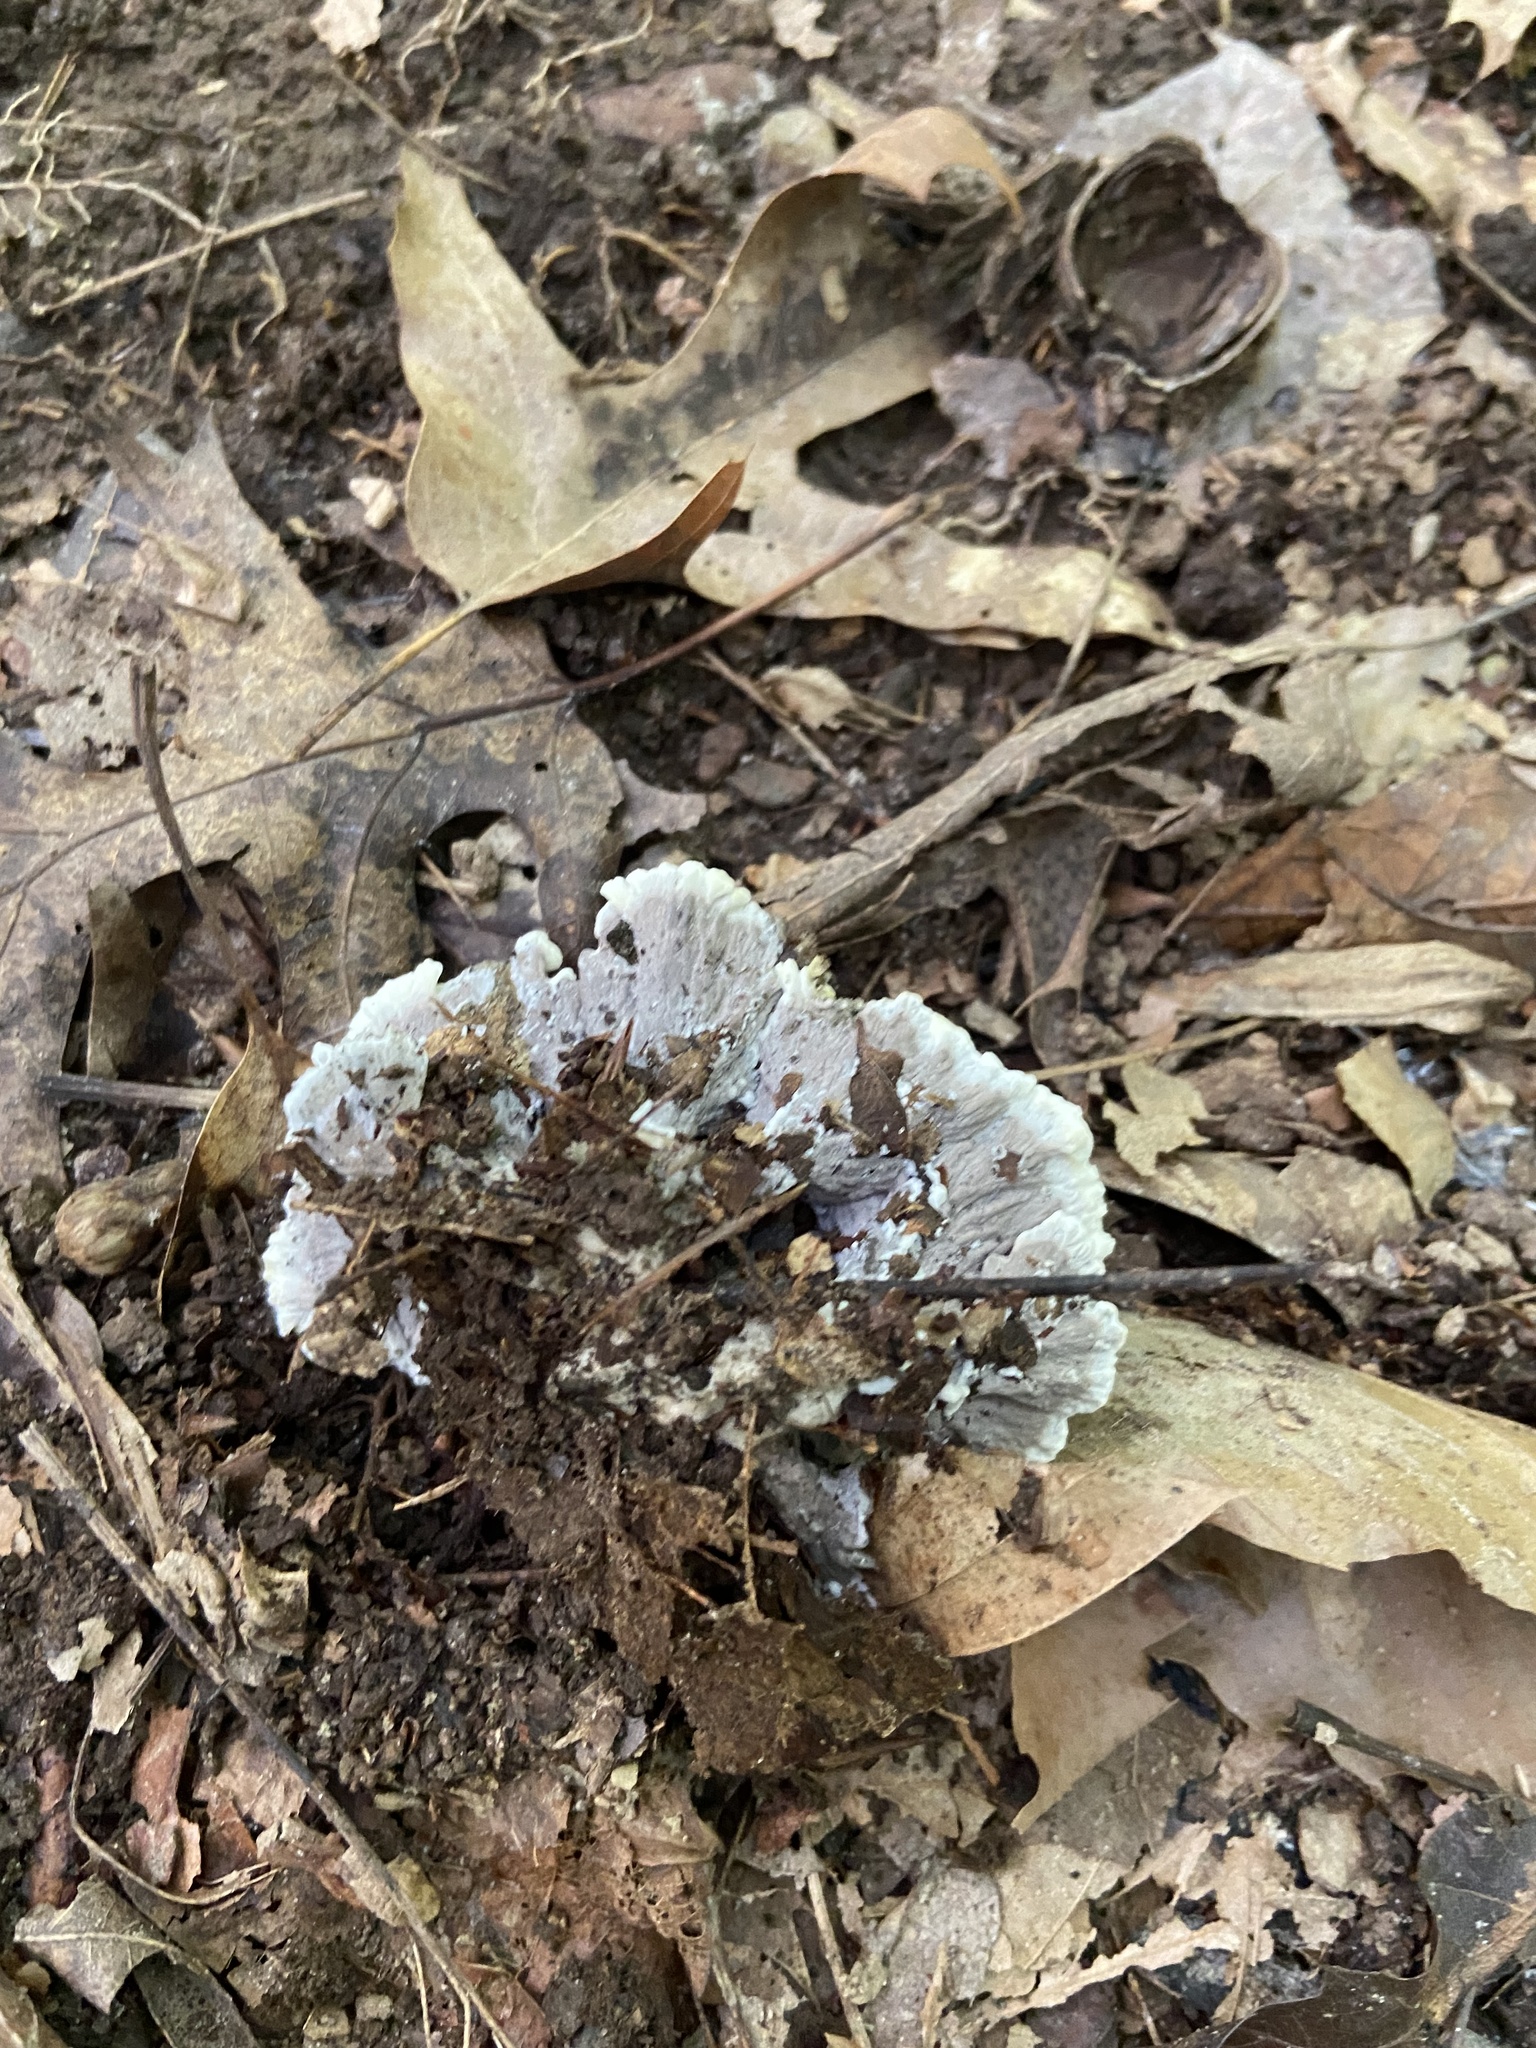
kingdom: Fungi
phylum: Basidiomycota
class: Agaricomycetes
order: Thelephorales
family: Thelephoraceae
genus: Thelephora
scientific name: Thelephora vialis
